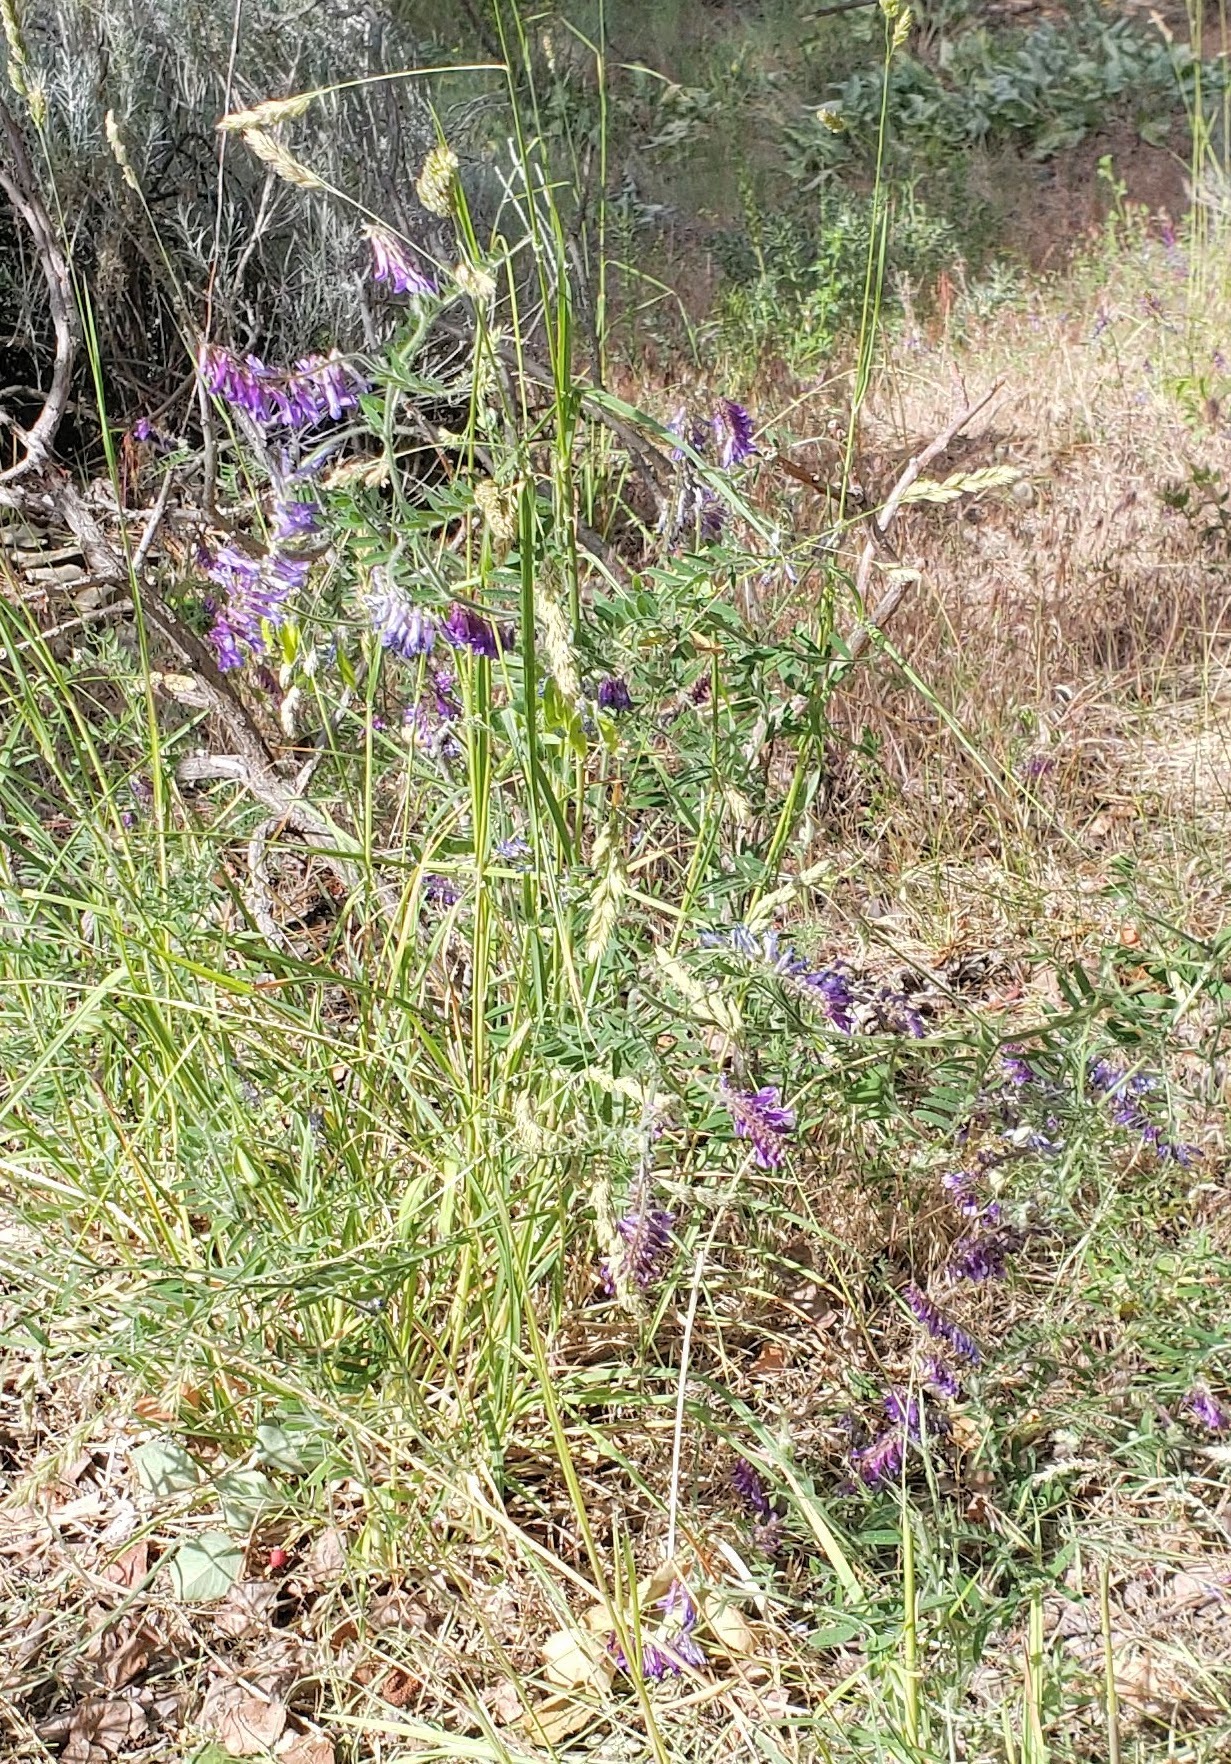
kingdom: Plantae
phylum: Tracheophyta
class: Magnoliopsida
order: Fabales
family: Fabaceae
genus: Vicia
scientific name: Vicia villosa
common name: Fodder vetch
